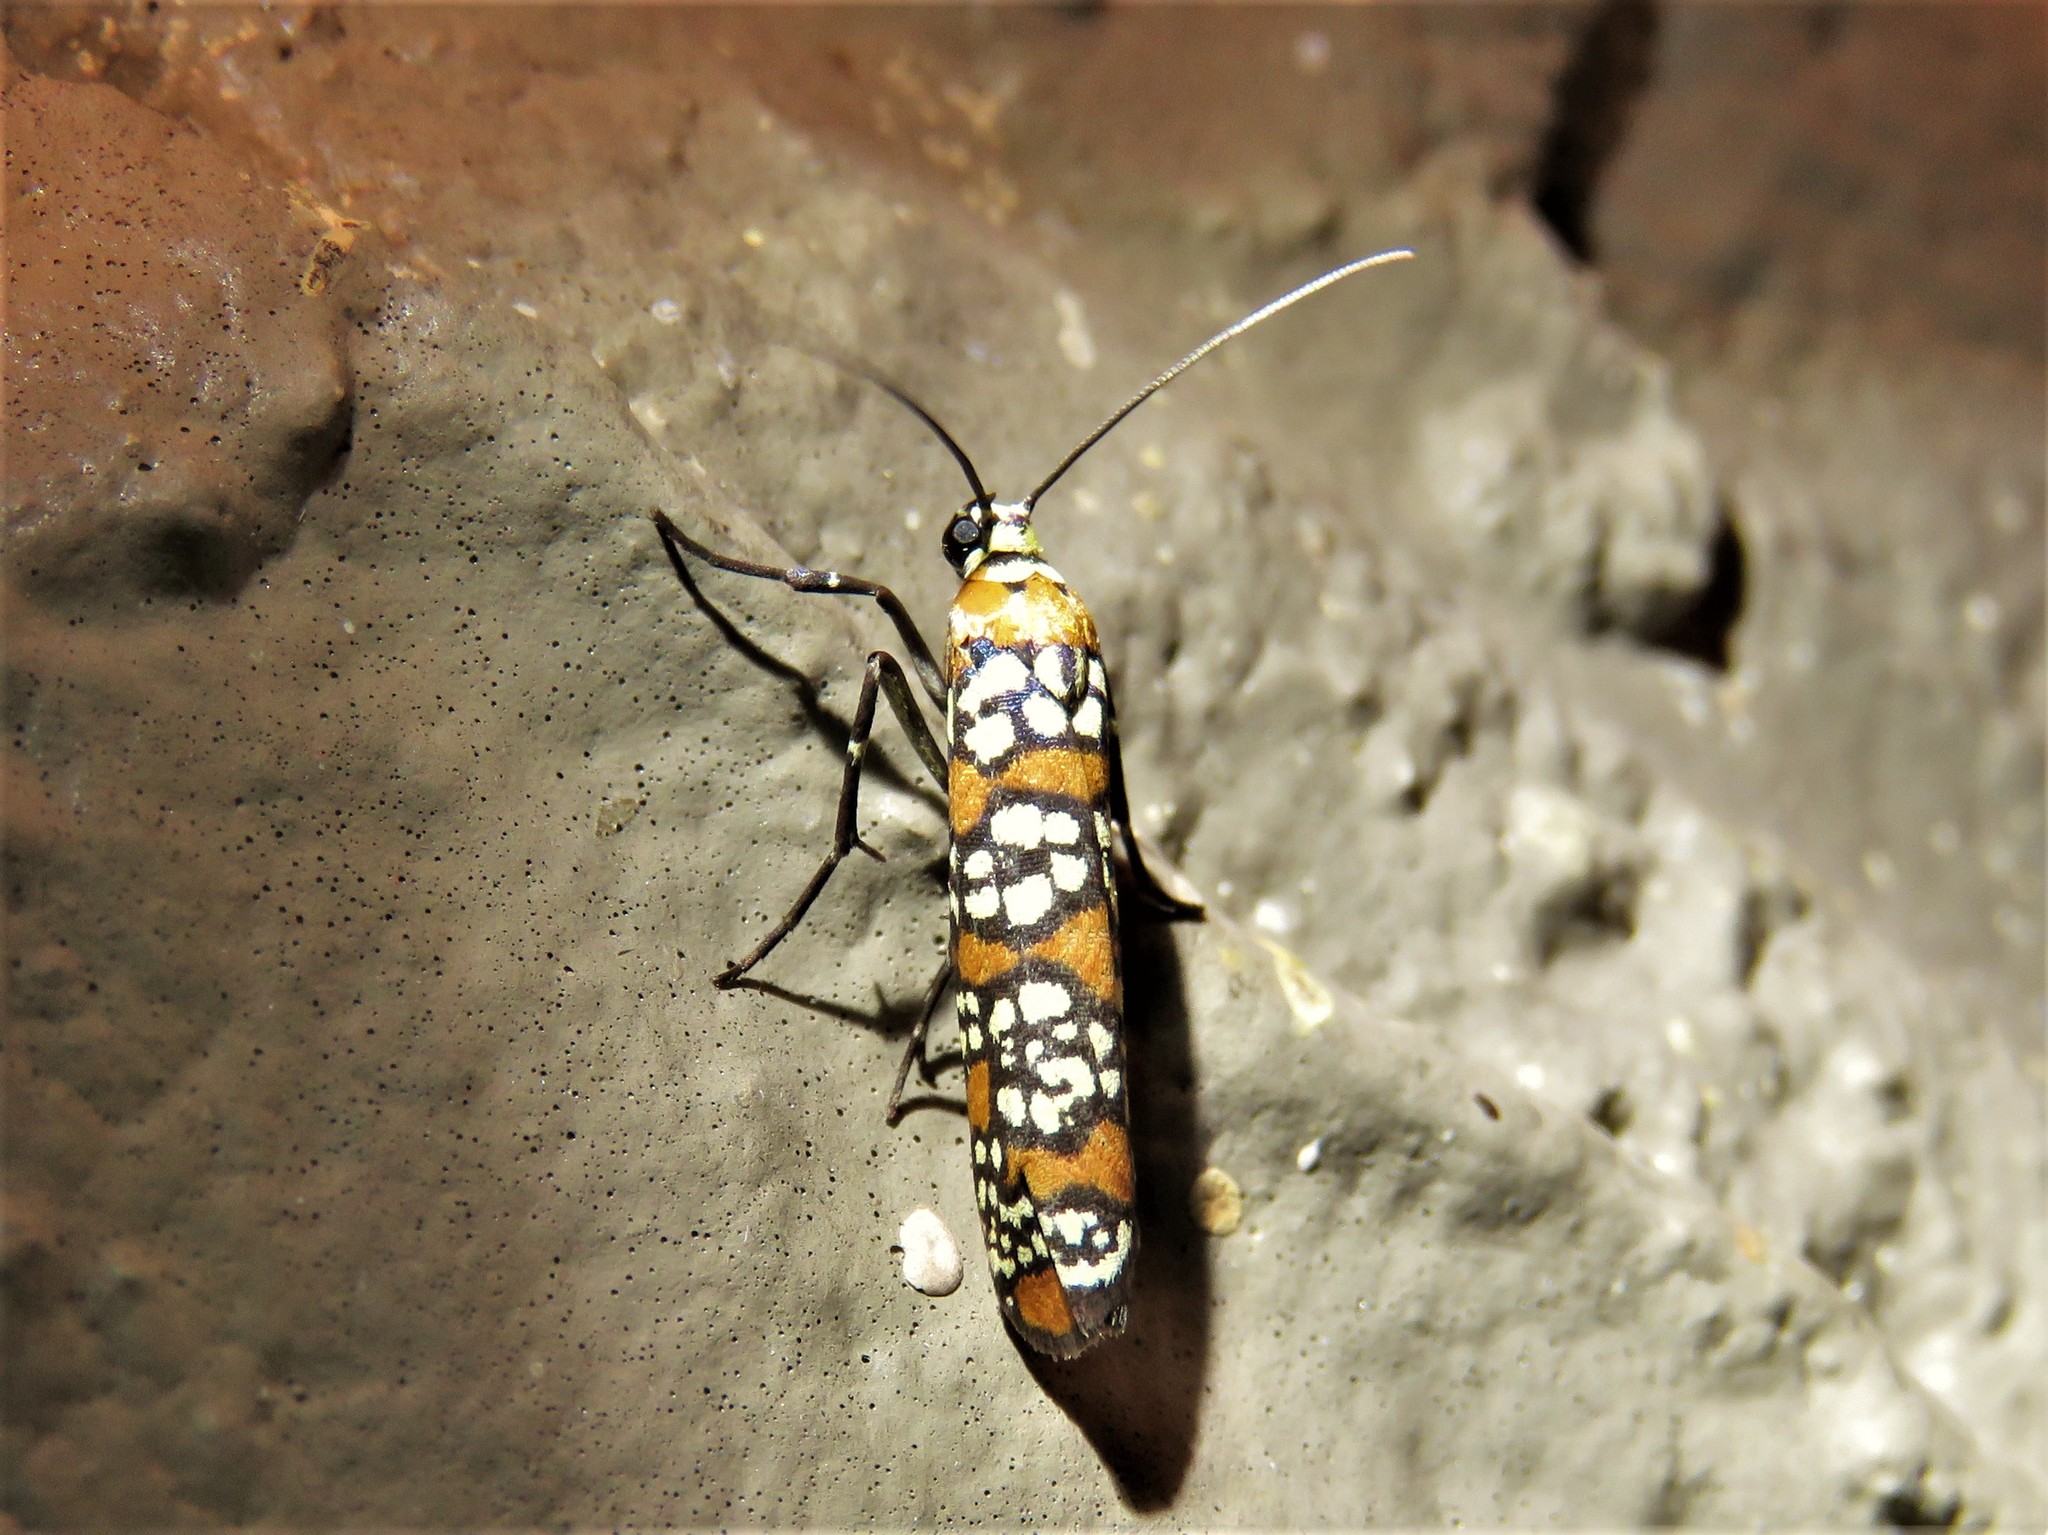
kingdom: Animalia
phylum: Arthropoda
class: Insecta
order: Lepidoptera
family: Attevidae
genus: Atteva
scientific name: Atteva punctella
